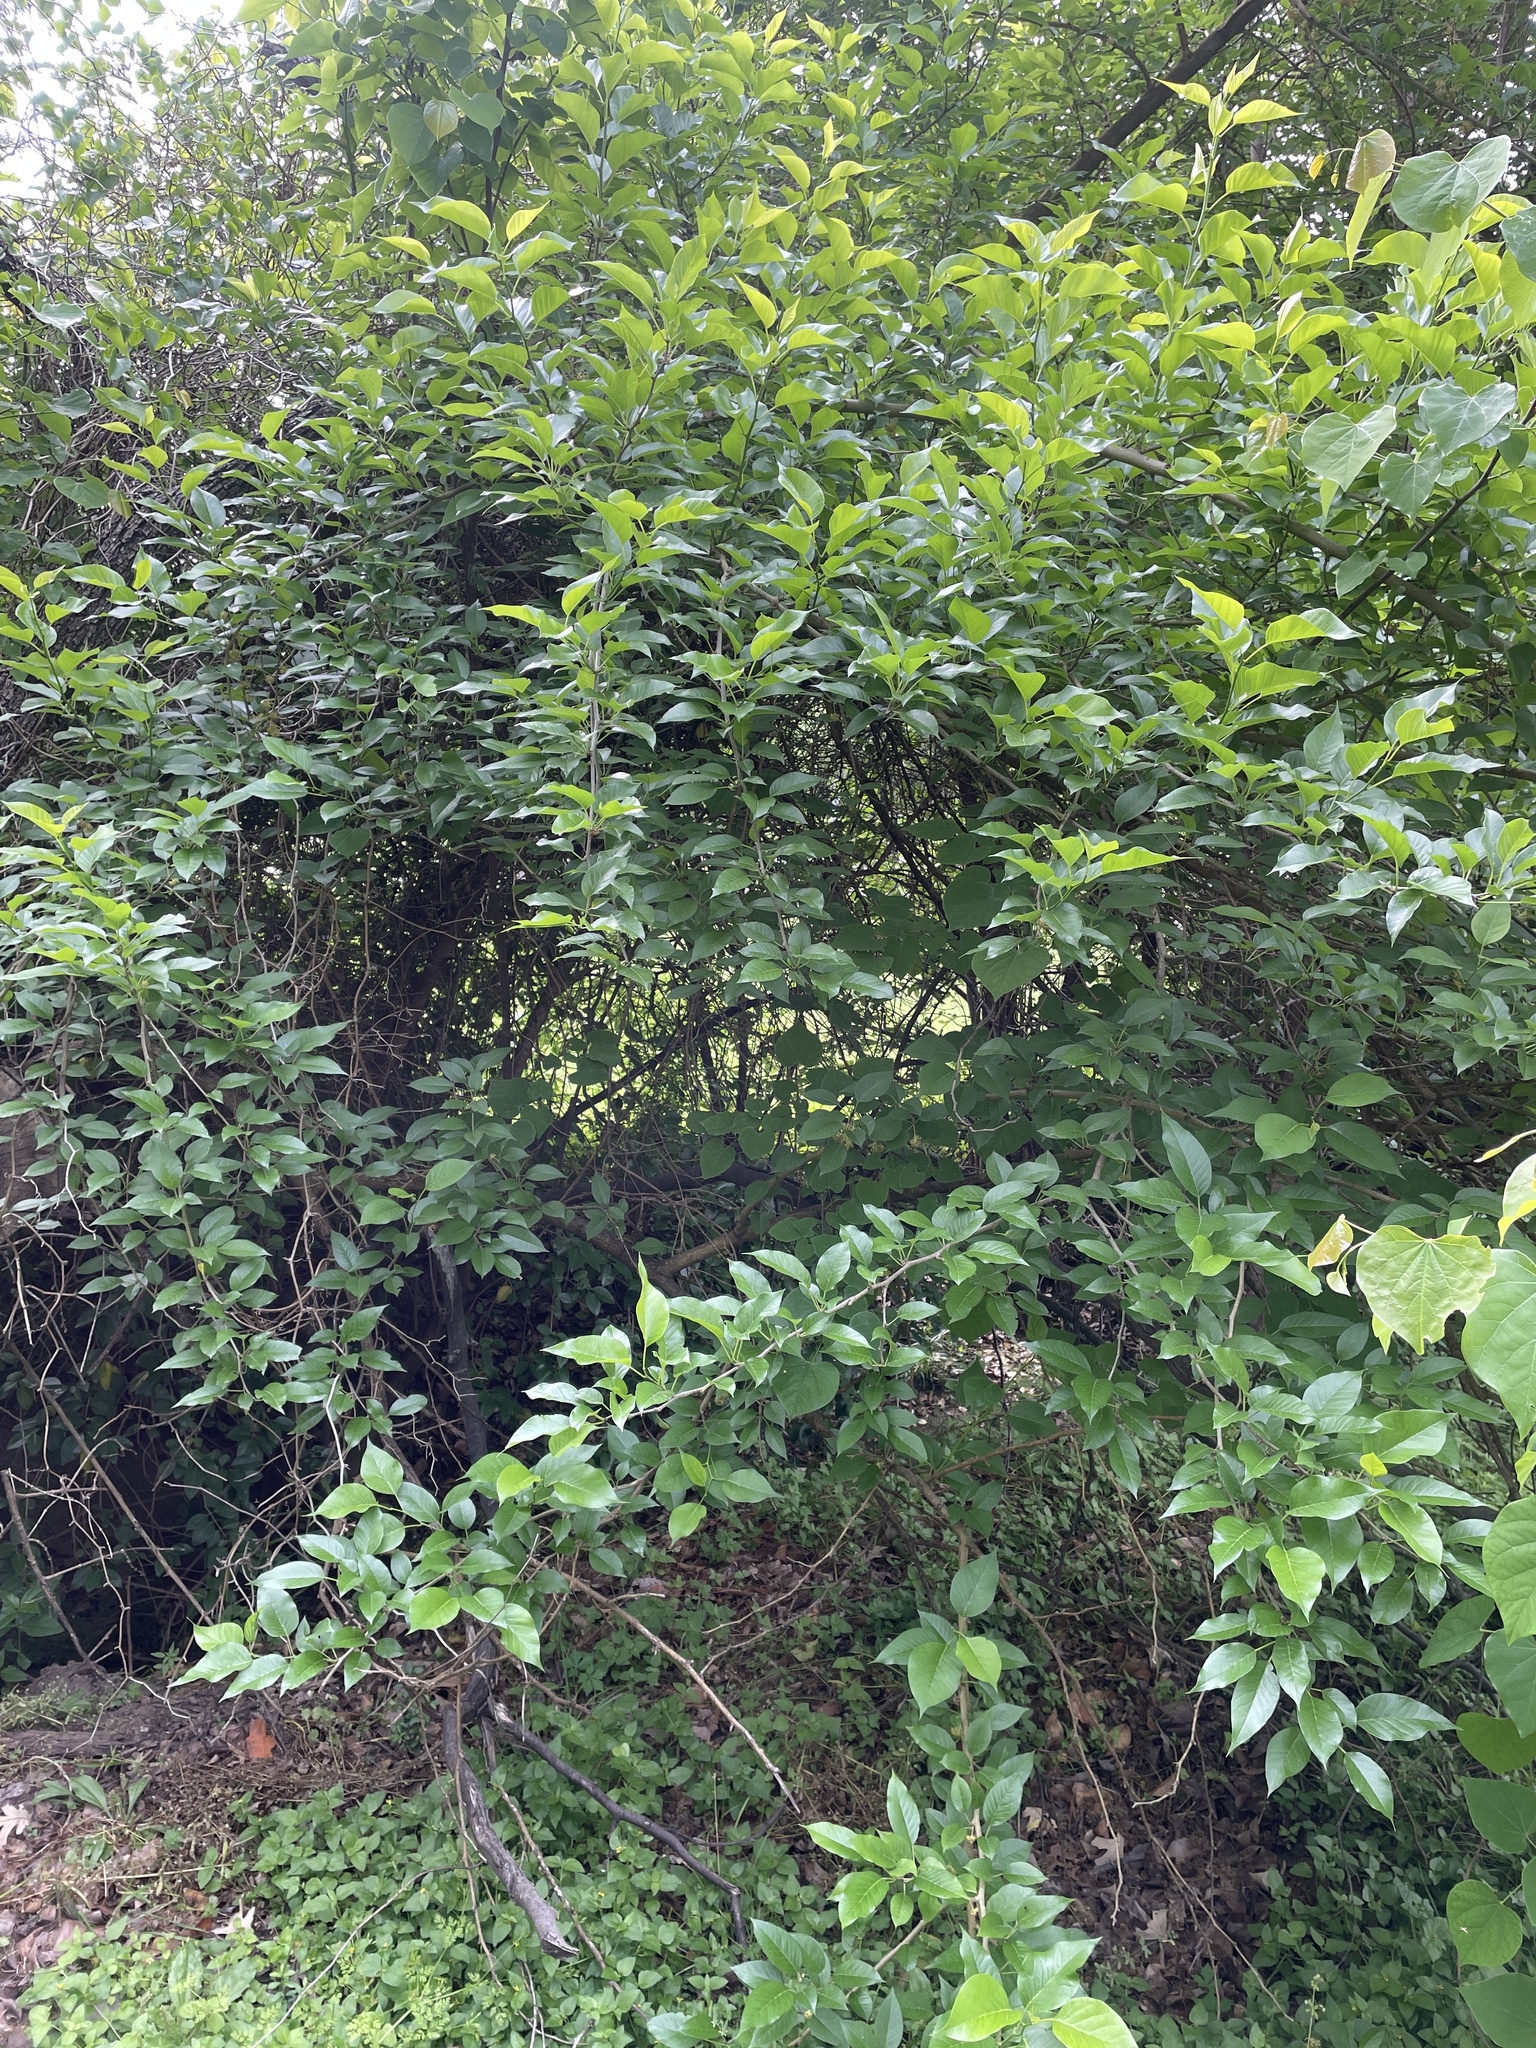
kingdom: Plantae
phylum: Tracheophyta
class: Magnoliopsida
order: Rosales
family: Moraceae
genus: Maclura
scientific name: Maclura pomifera
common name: Osage-orange
